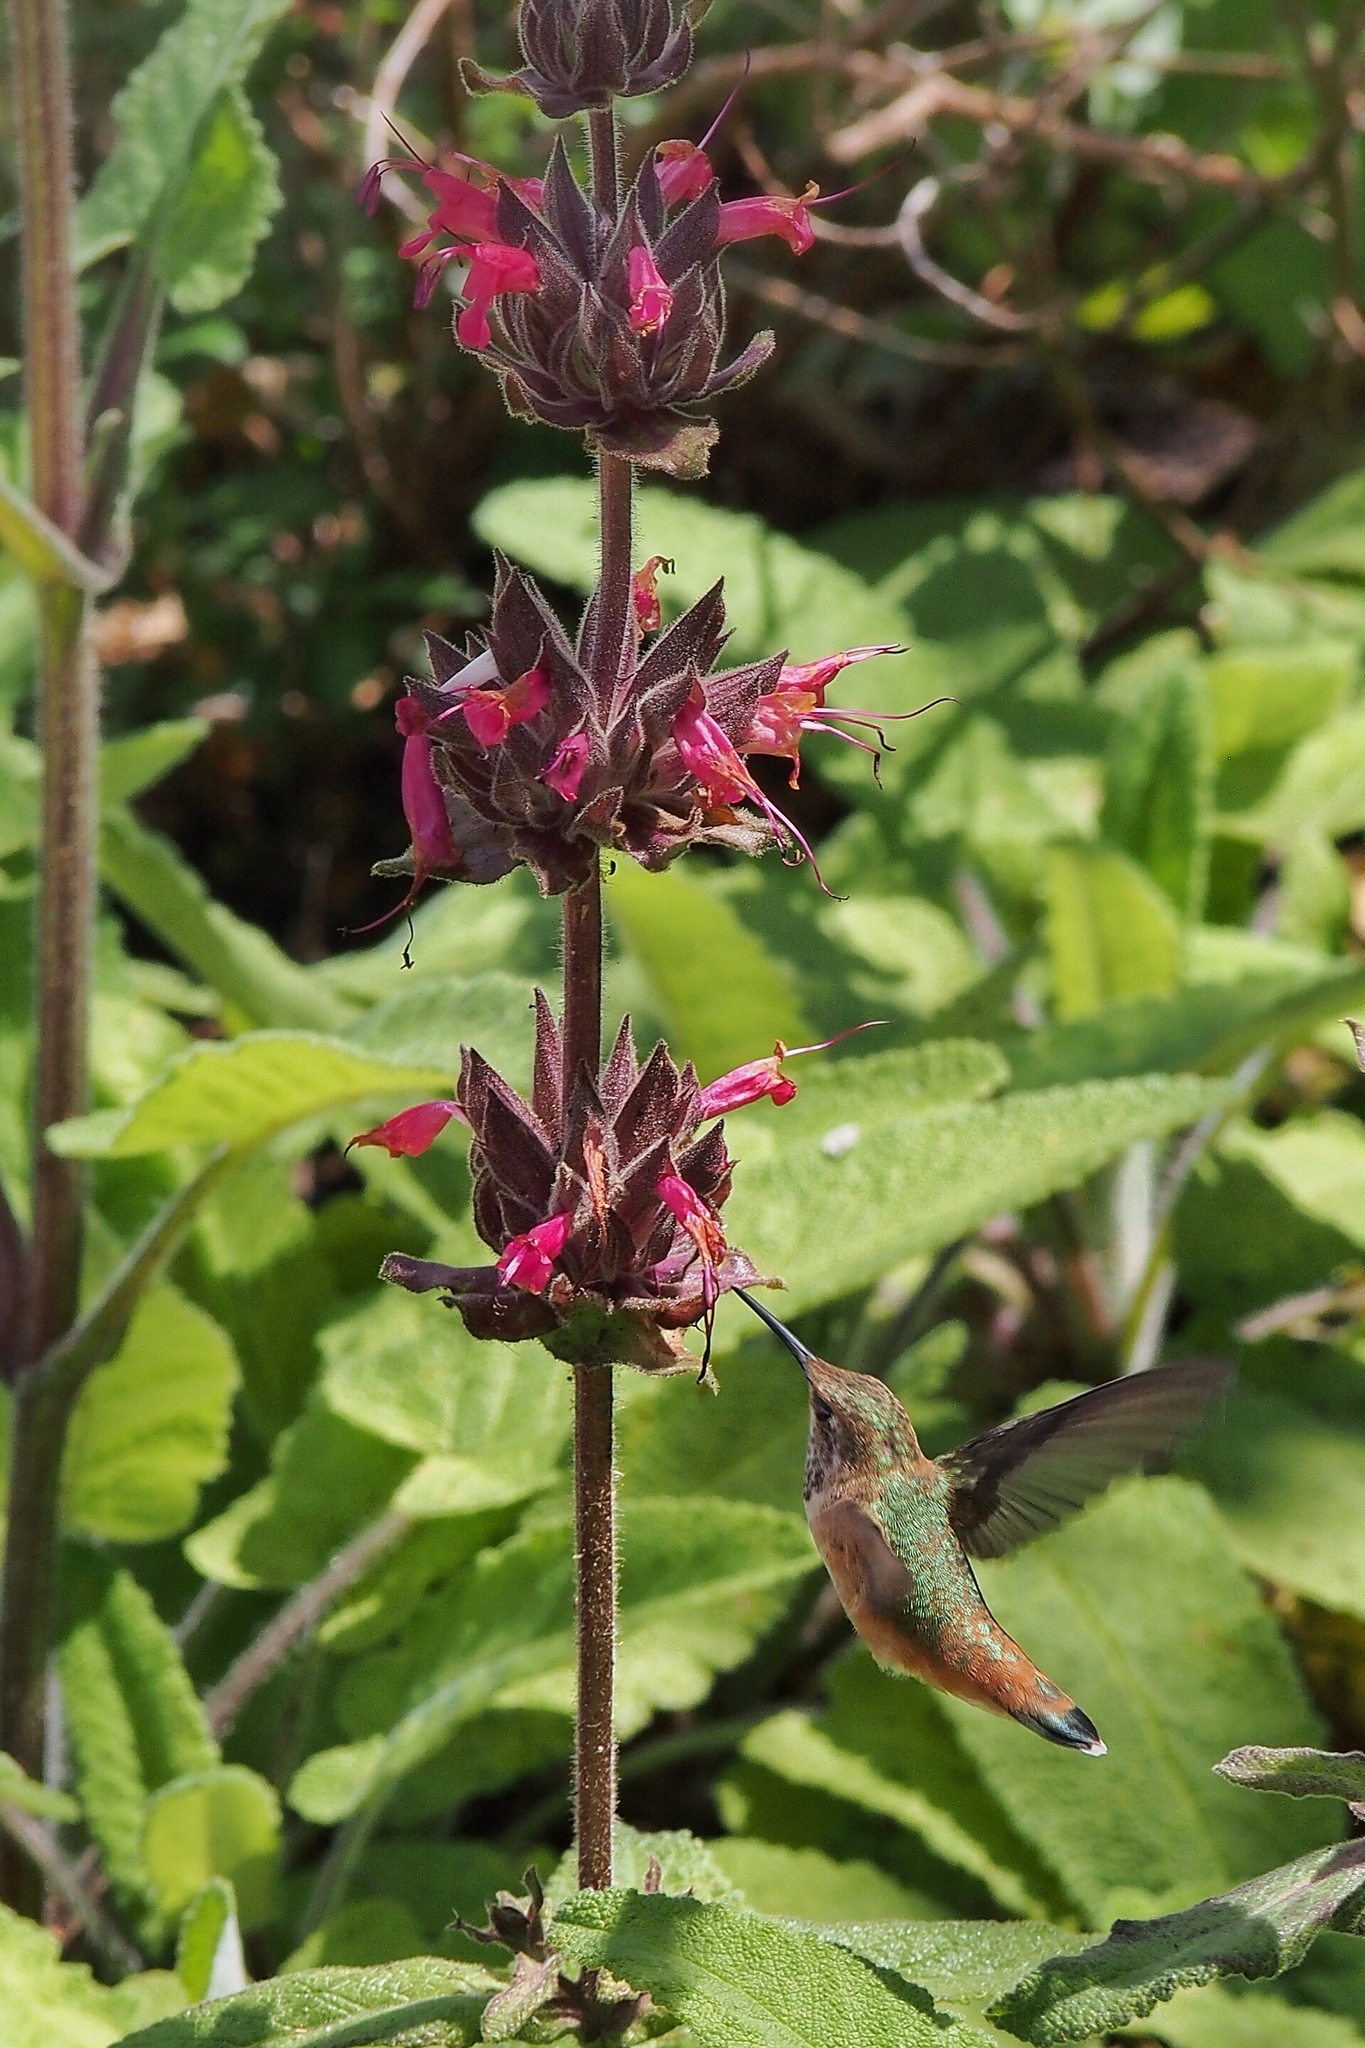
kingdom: Animalia
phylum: Chordata
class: Aves
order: Apodiformes
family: Trochilidae
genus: Selasphorus
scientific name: Selasphorus
